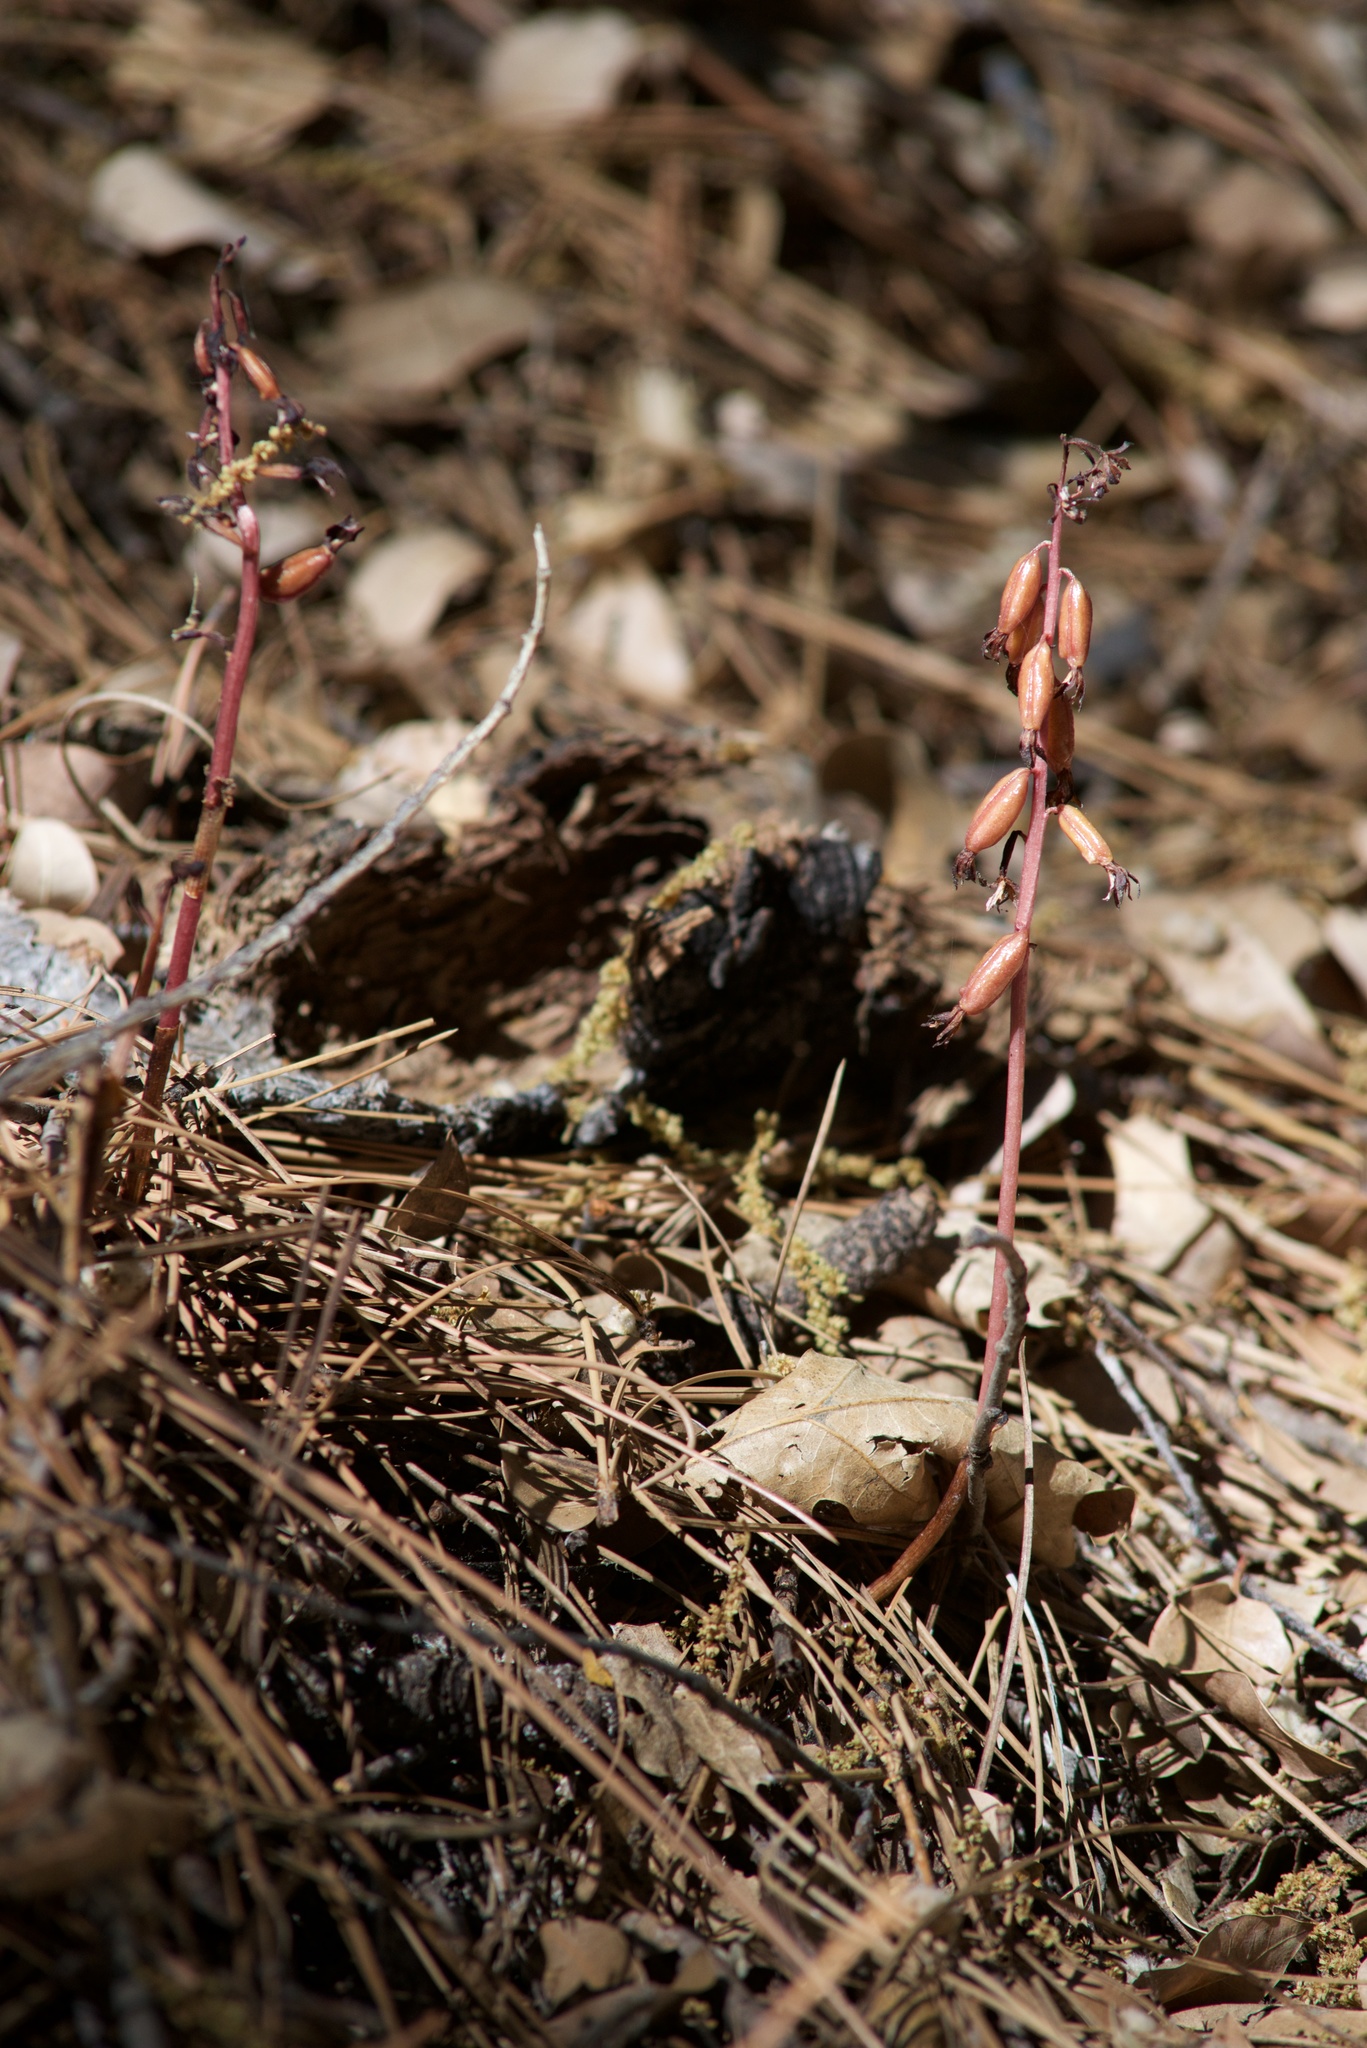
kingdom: Plantae
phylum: Tracheophyta
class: Liliopsida
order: Asparagales
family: Orchidaceae
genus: Corallorhiza
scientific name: Corallorhiza maculata
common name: Spotted coralroot
